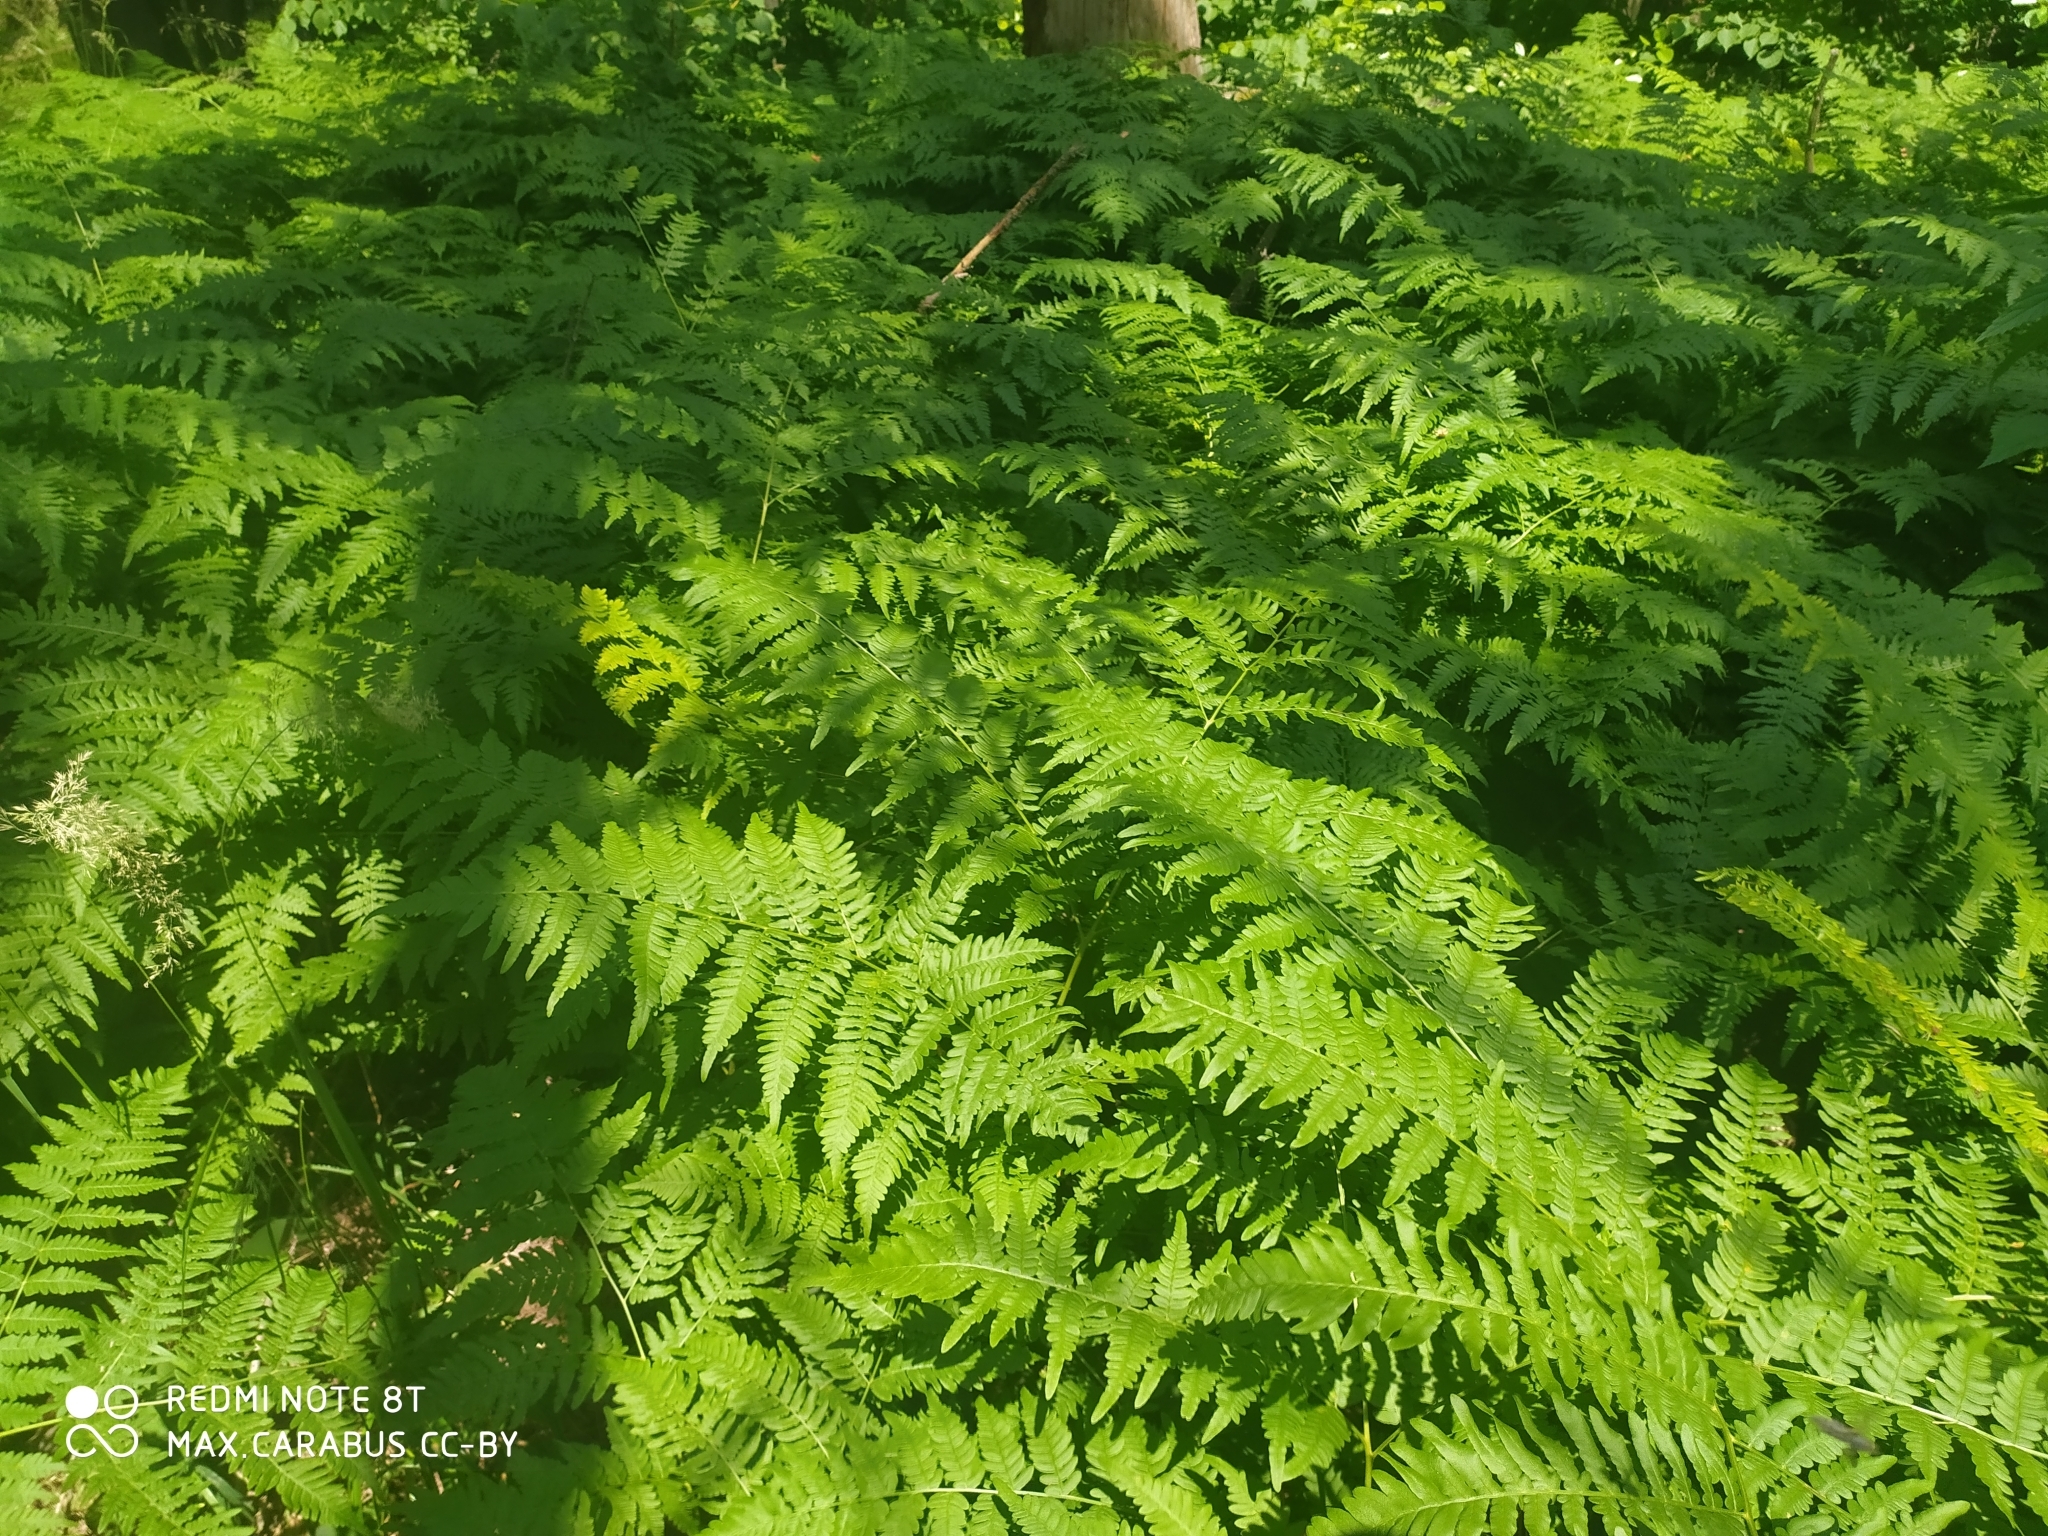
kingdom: Plantae
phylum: Tracheophyta
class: Polypodiopsida
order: Polypodiales
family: Dennstaedtiaceae
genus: Pteridium
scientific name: Pteridium aquilinum
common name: Bracken
